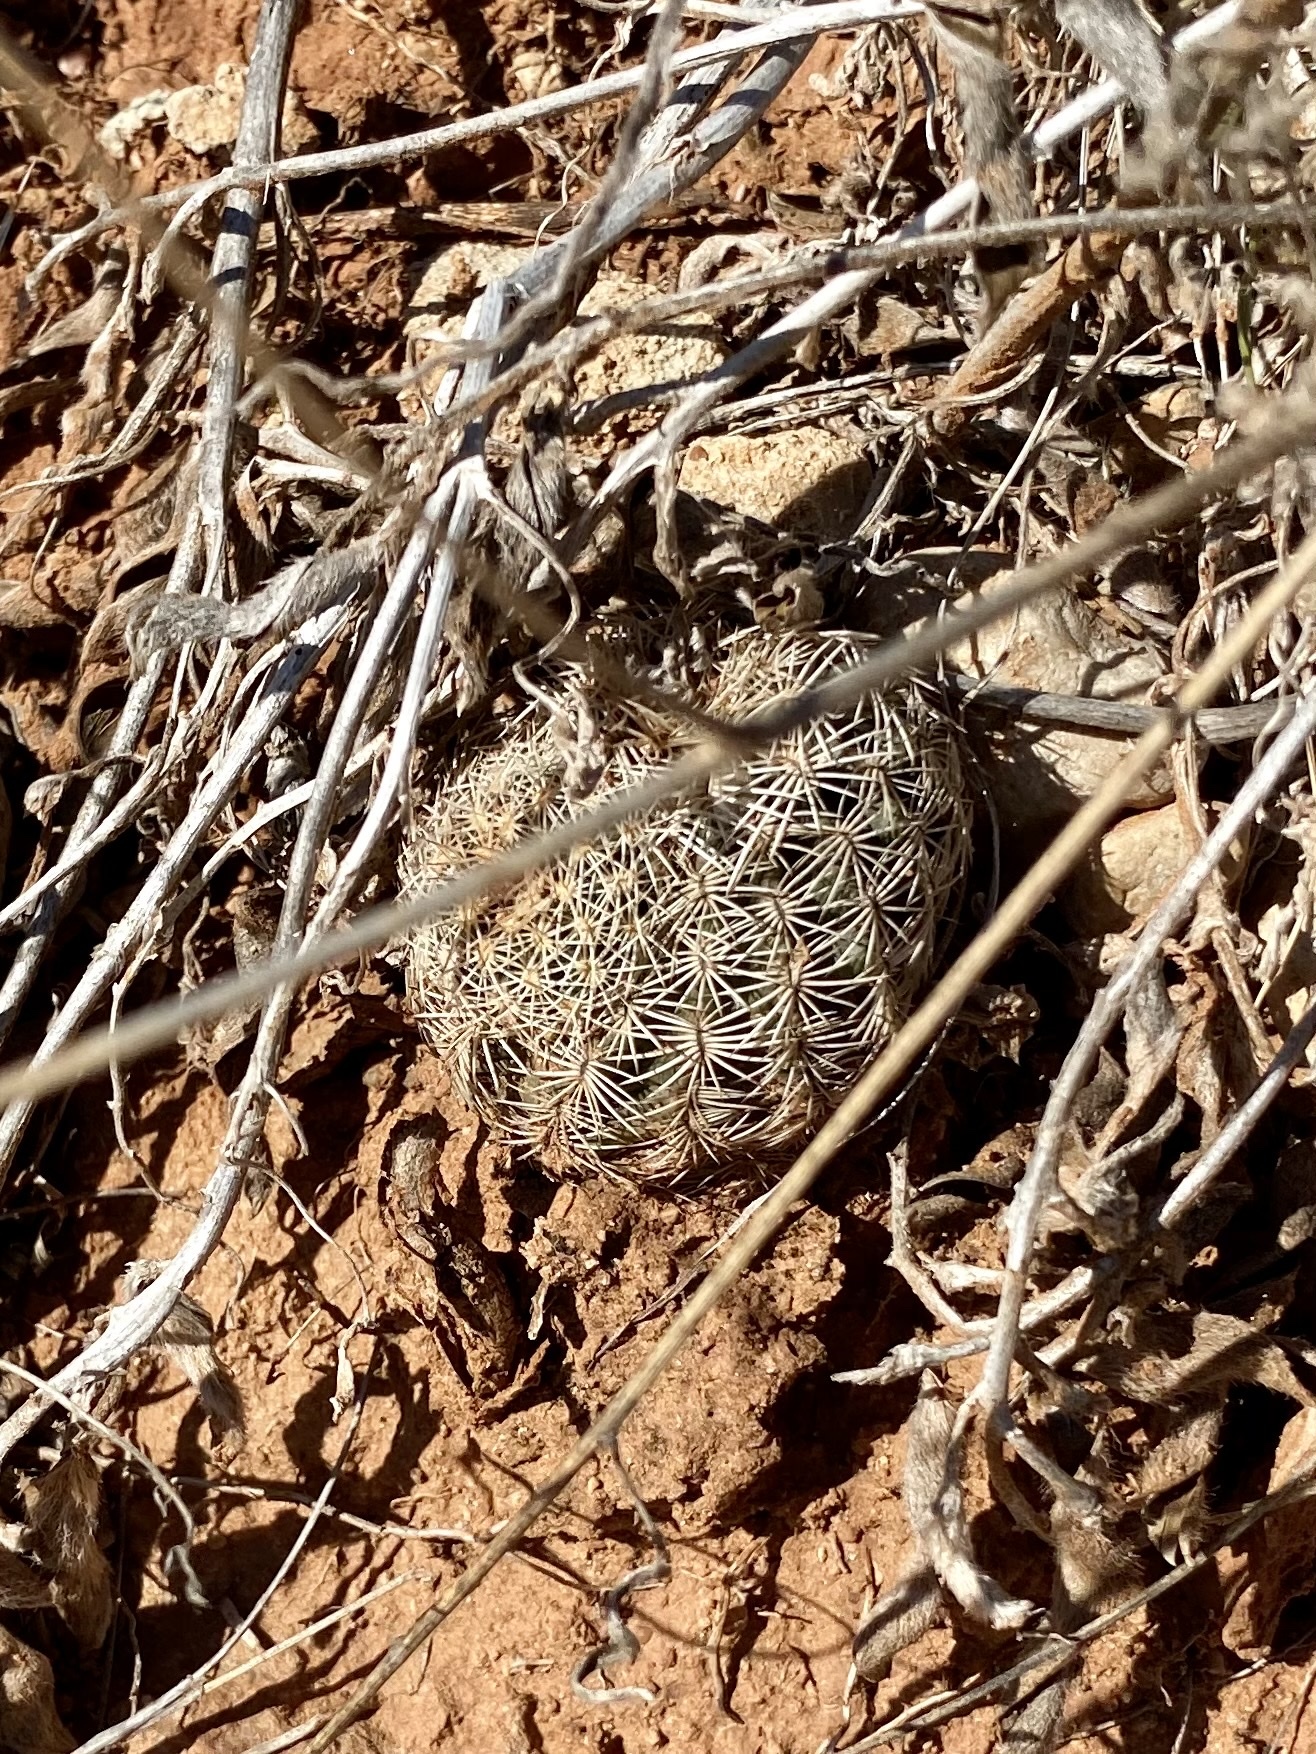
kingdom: Plantae
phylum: Tracheophyta
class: Magnoliopsida
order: Caryophyllales
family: Cactaceae
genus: Echinocereus
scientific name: Echinocereus reichenbachii
